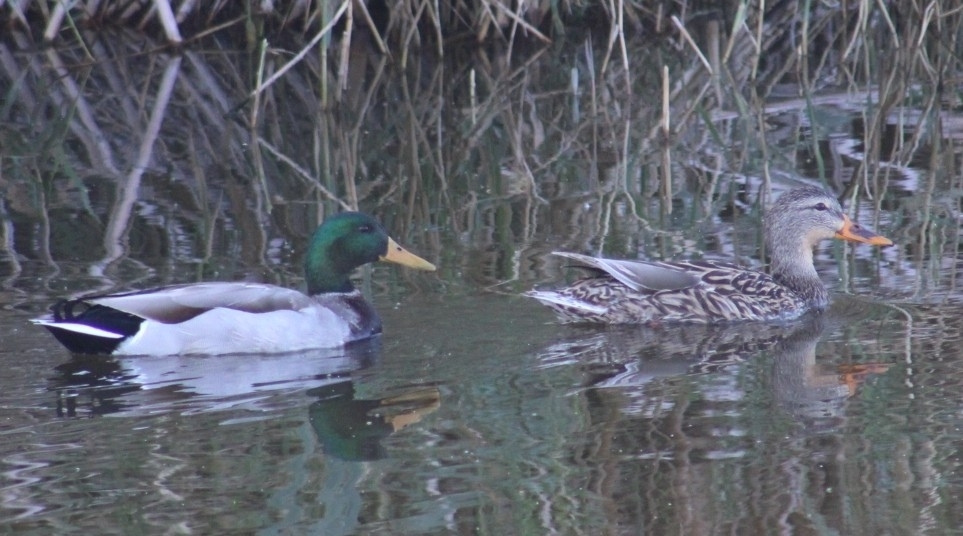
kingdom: Animalia
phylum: Chordata
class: Aves
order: Anseriformes
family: Anatidae
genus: Anas
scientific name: Anas platyrhynchos
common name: Mallard
